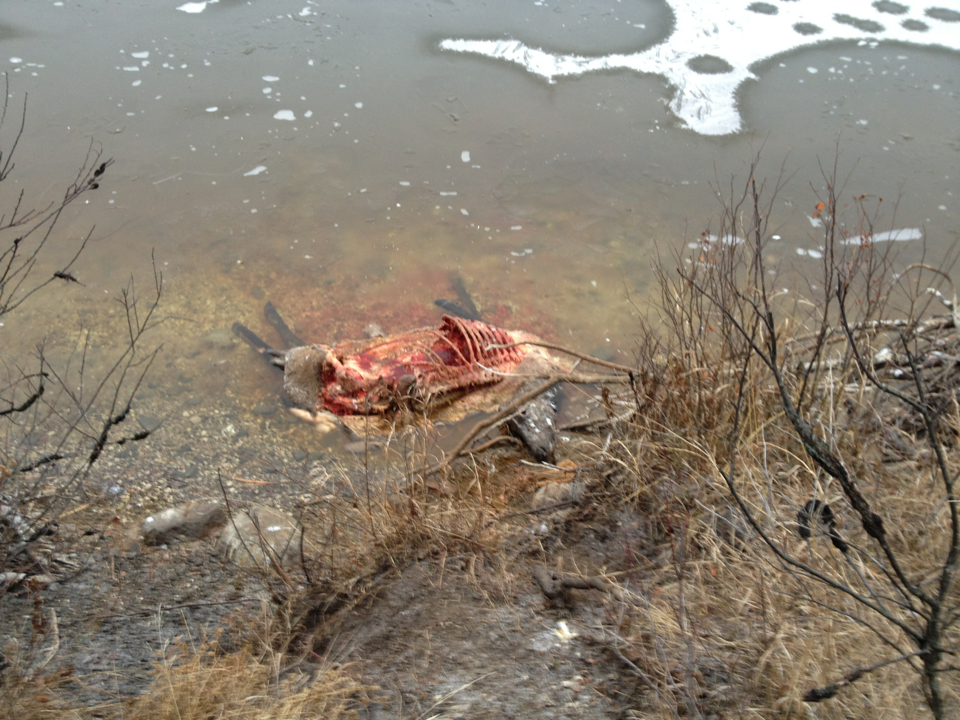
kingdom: Animalia
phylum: Chordata
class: Mammalia
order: Artiodactyla
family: Cervidae
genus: Cervus
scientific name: Cervus elaphus
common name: Red deer
